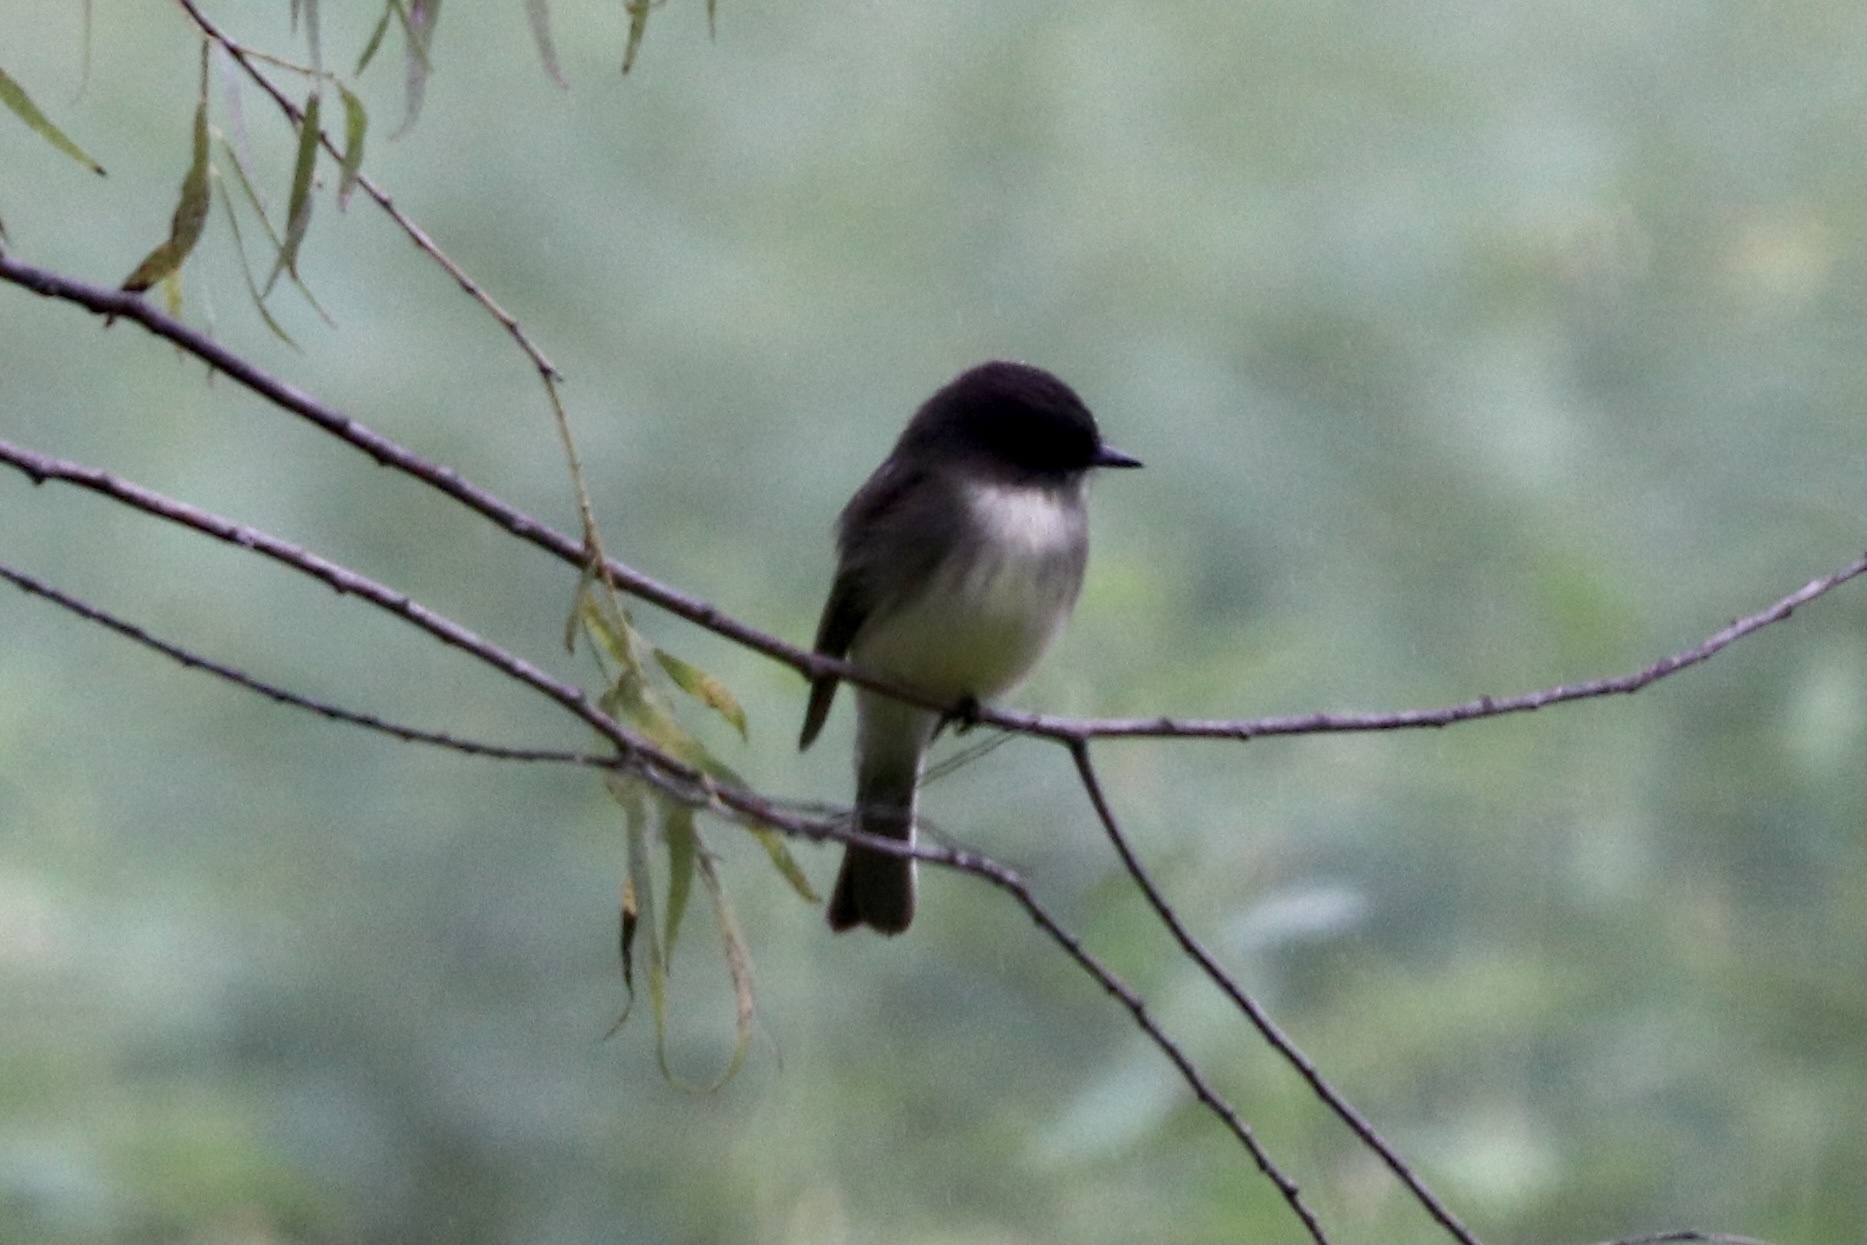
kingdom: Animalia
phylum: Chordata
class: Aves
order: Passeriformes
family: Tyrannidae
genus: Sayornis
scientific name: Sayornis phoebe
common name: Eastern phoebe
